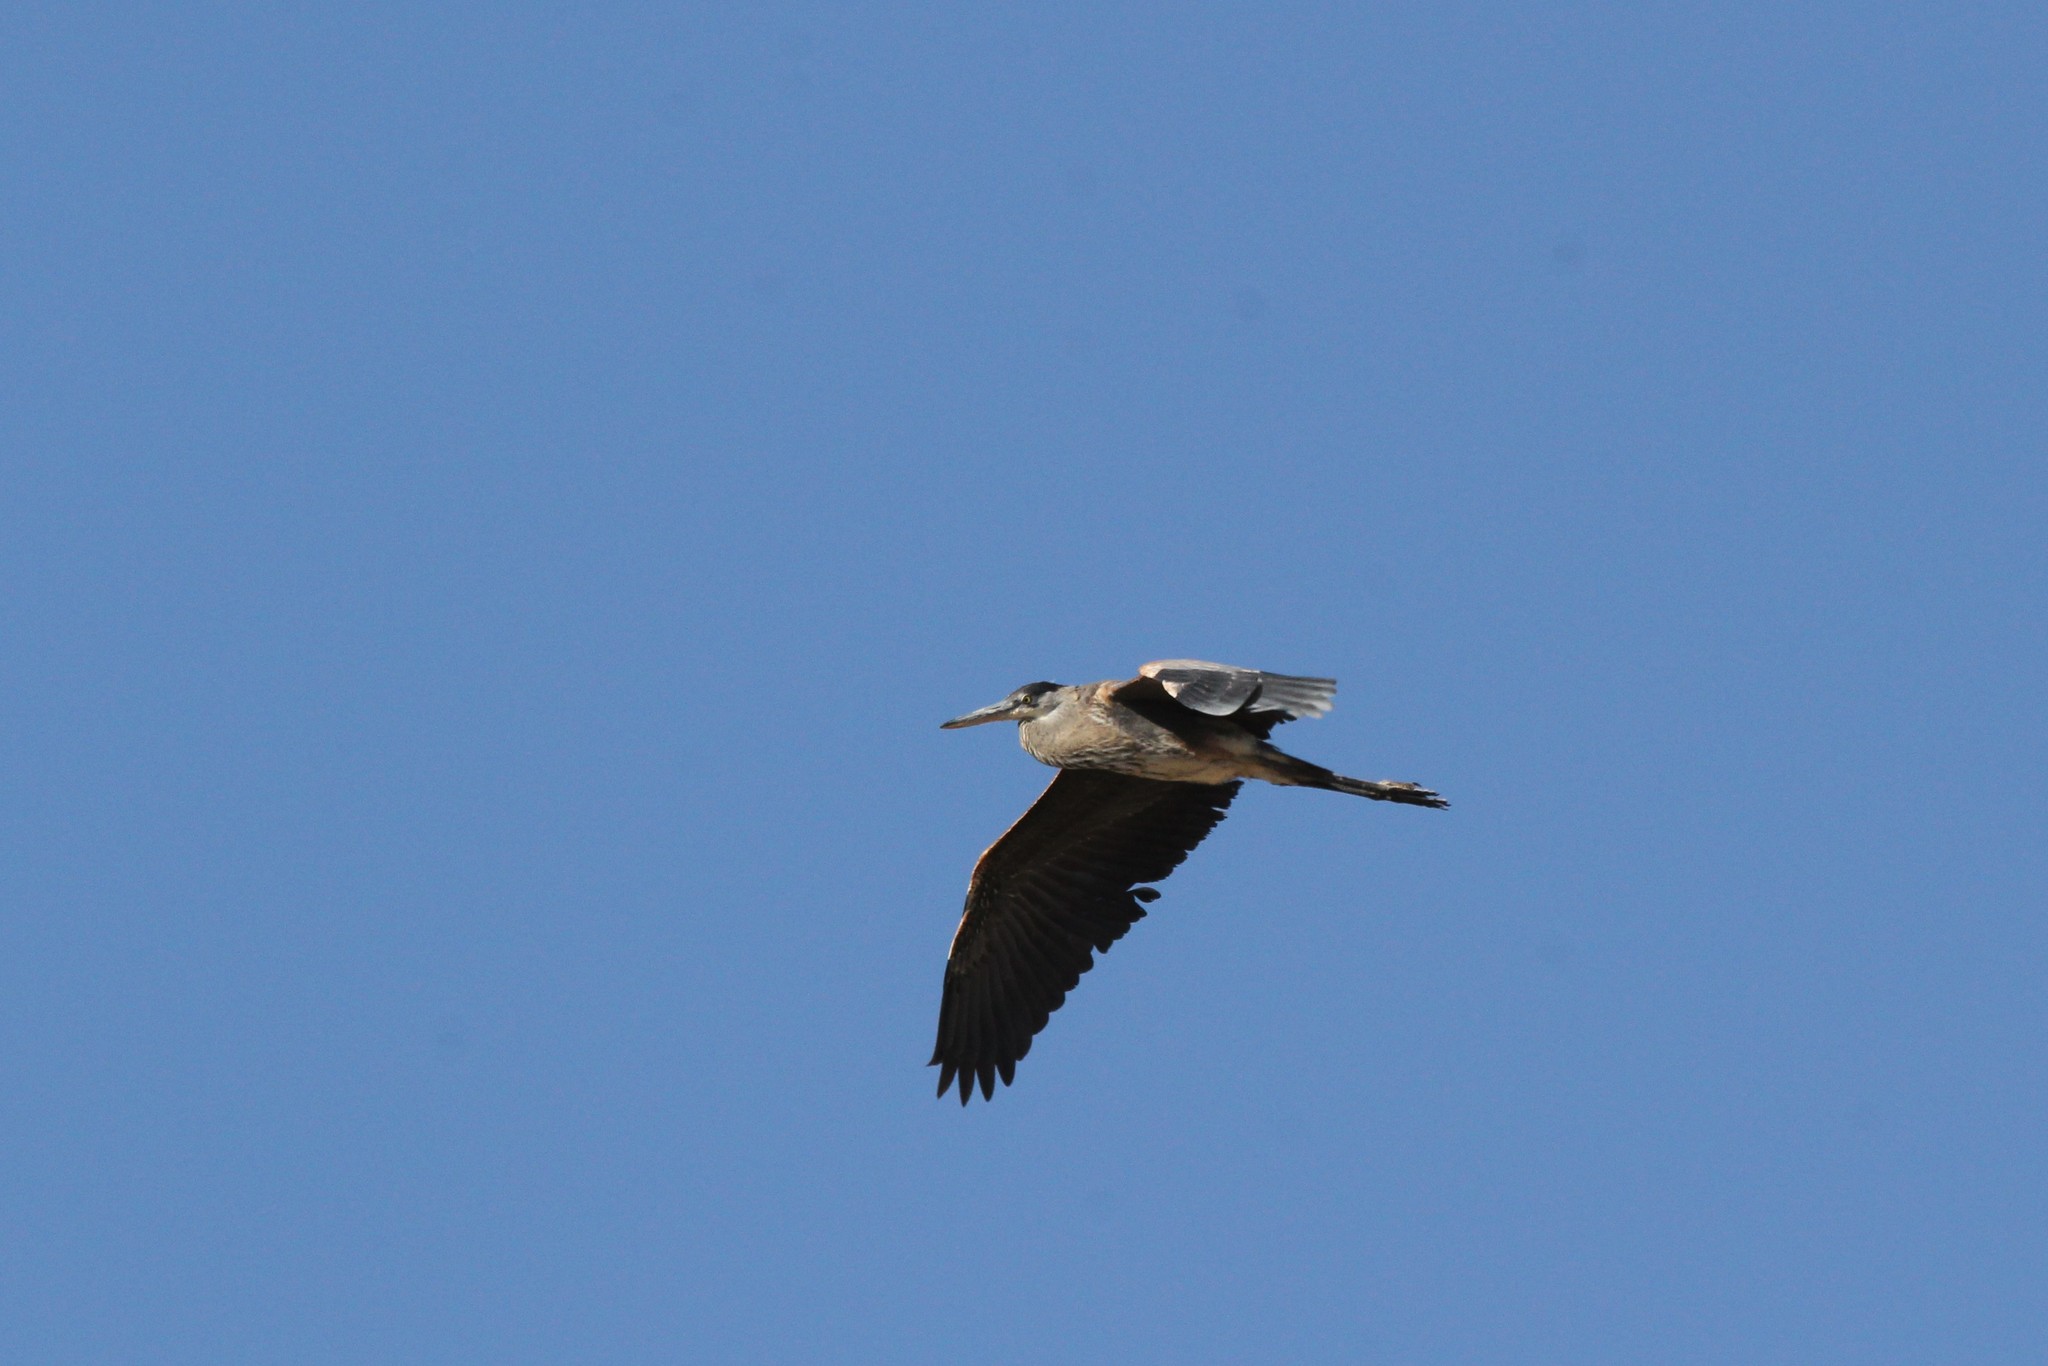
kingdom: Animalia
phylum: Chordata
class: Aves
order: Pelecaniformes
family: Ardeidae
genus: Ardea
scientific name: Ardea herodias
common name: Great blue heron
